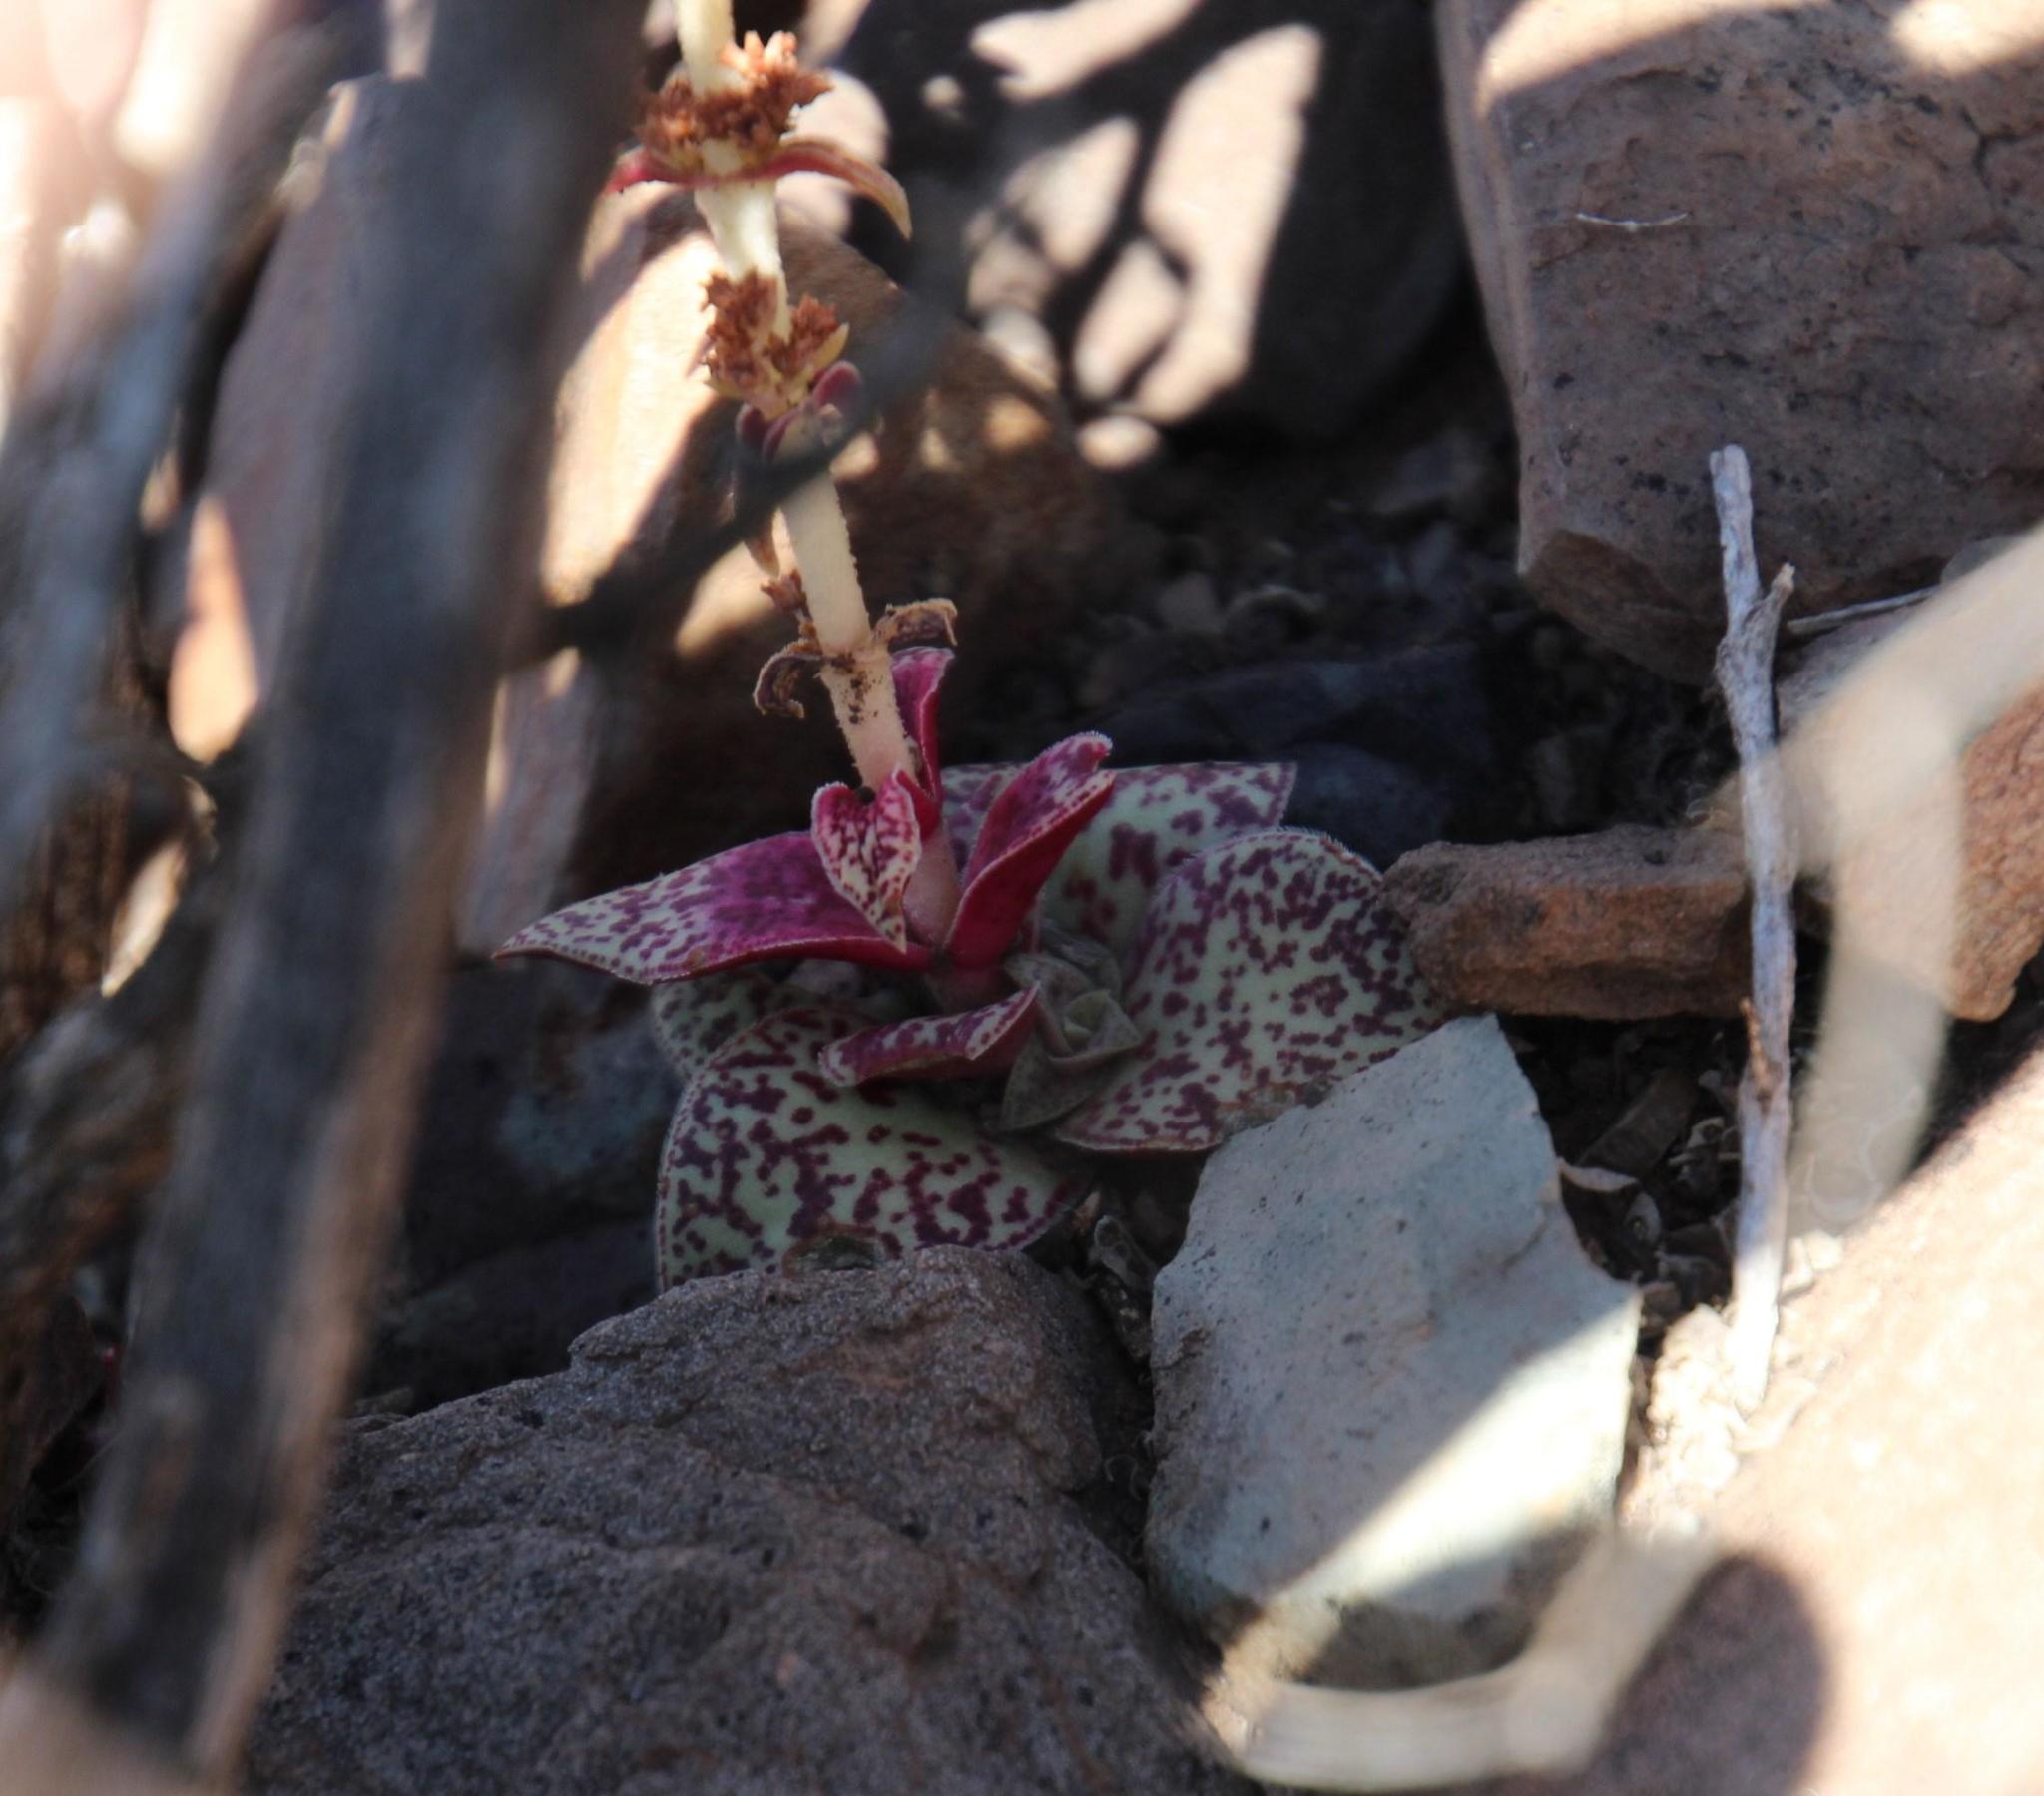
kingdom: Plantae
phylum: Tracheophyta
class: Magnoliopsida
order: Saxifragales
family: Crassulaceae
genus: Crassula
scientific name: Crassula capitella
